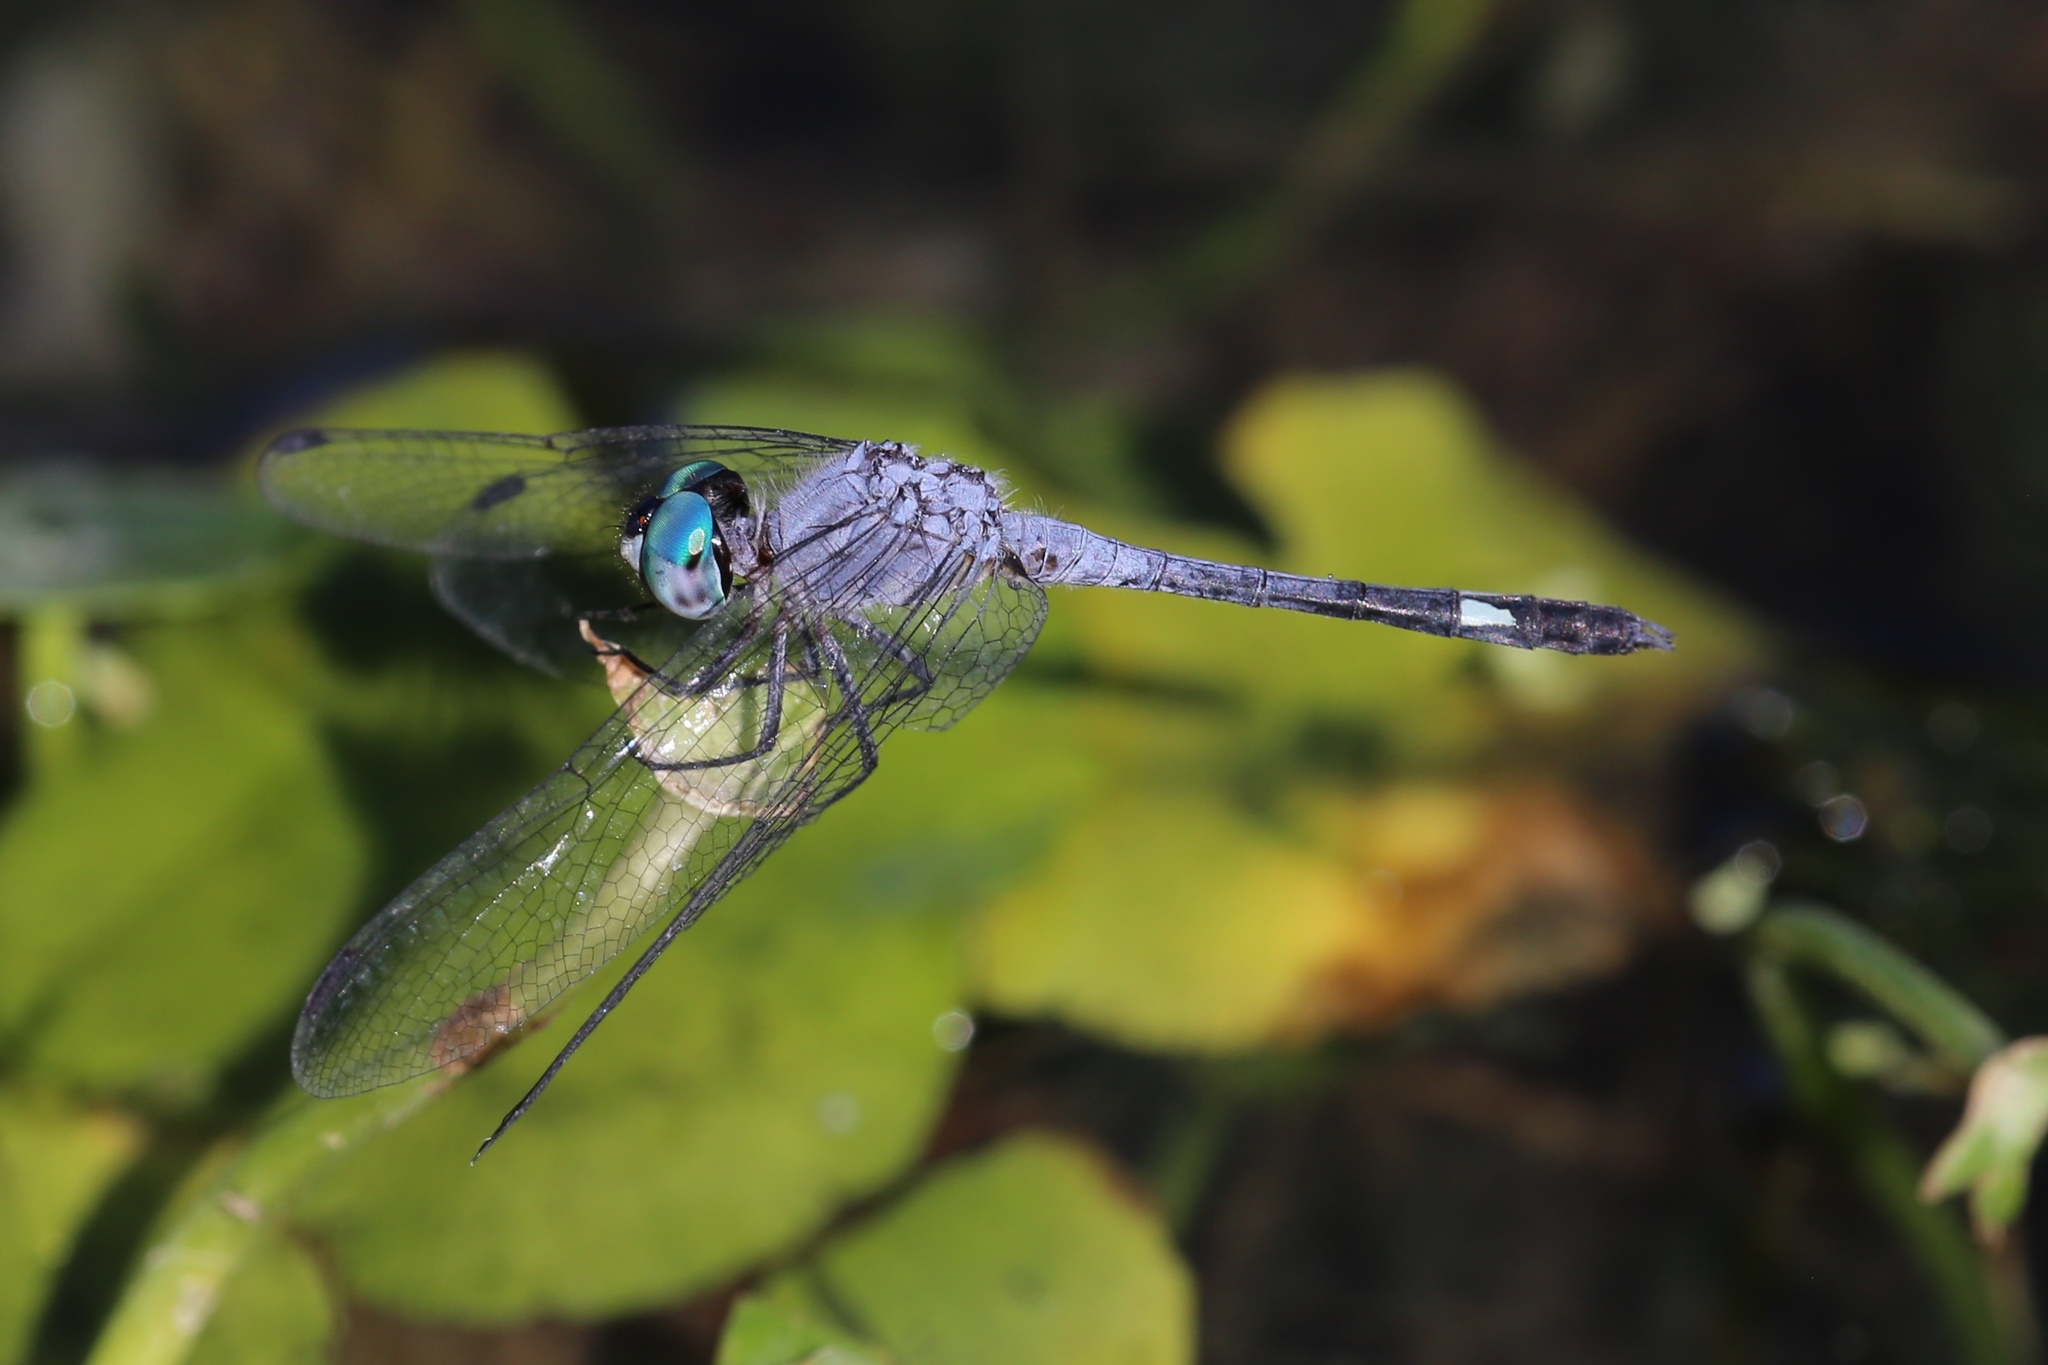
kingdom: Animalia
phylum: Arthropoda
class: Insecta
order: Odonata
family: Libellulidae
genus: Micrathyria
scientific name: Micrathyria aequalis
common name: Spot-tailed dasher
